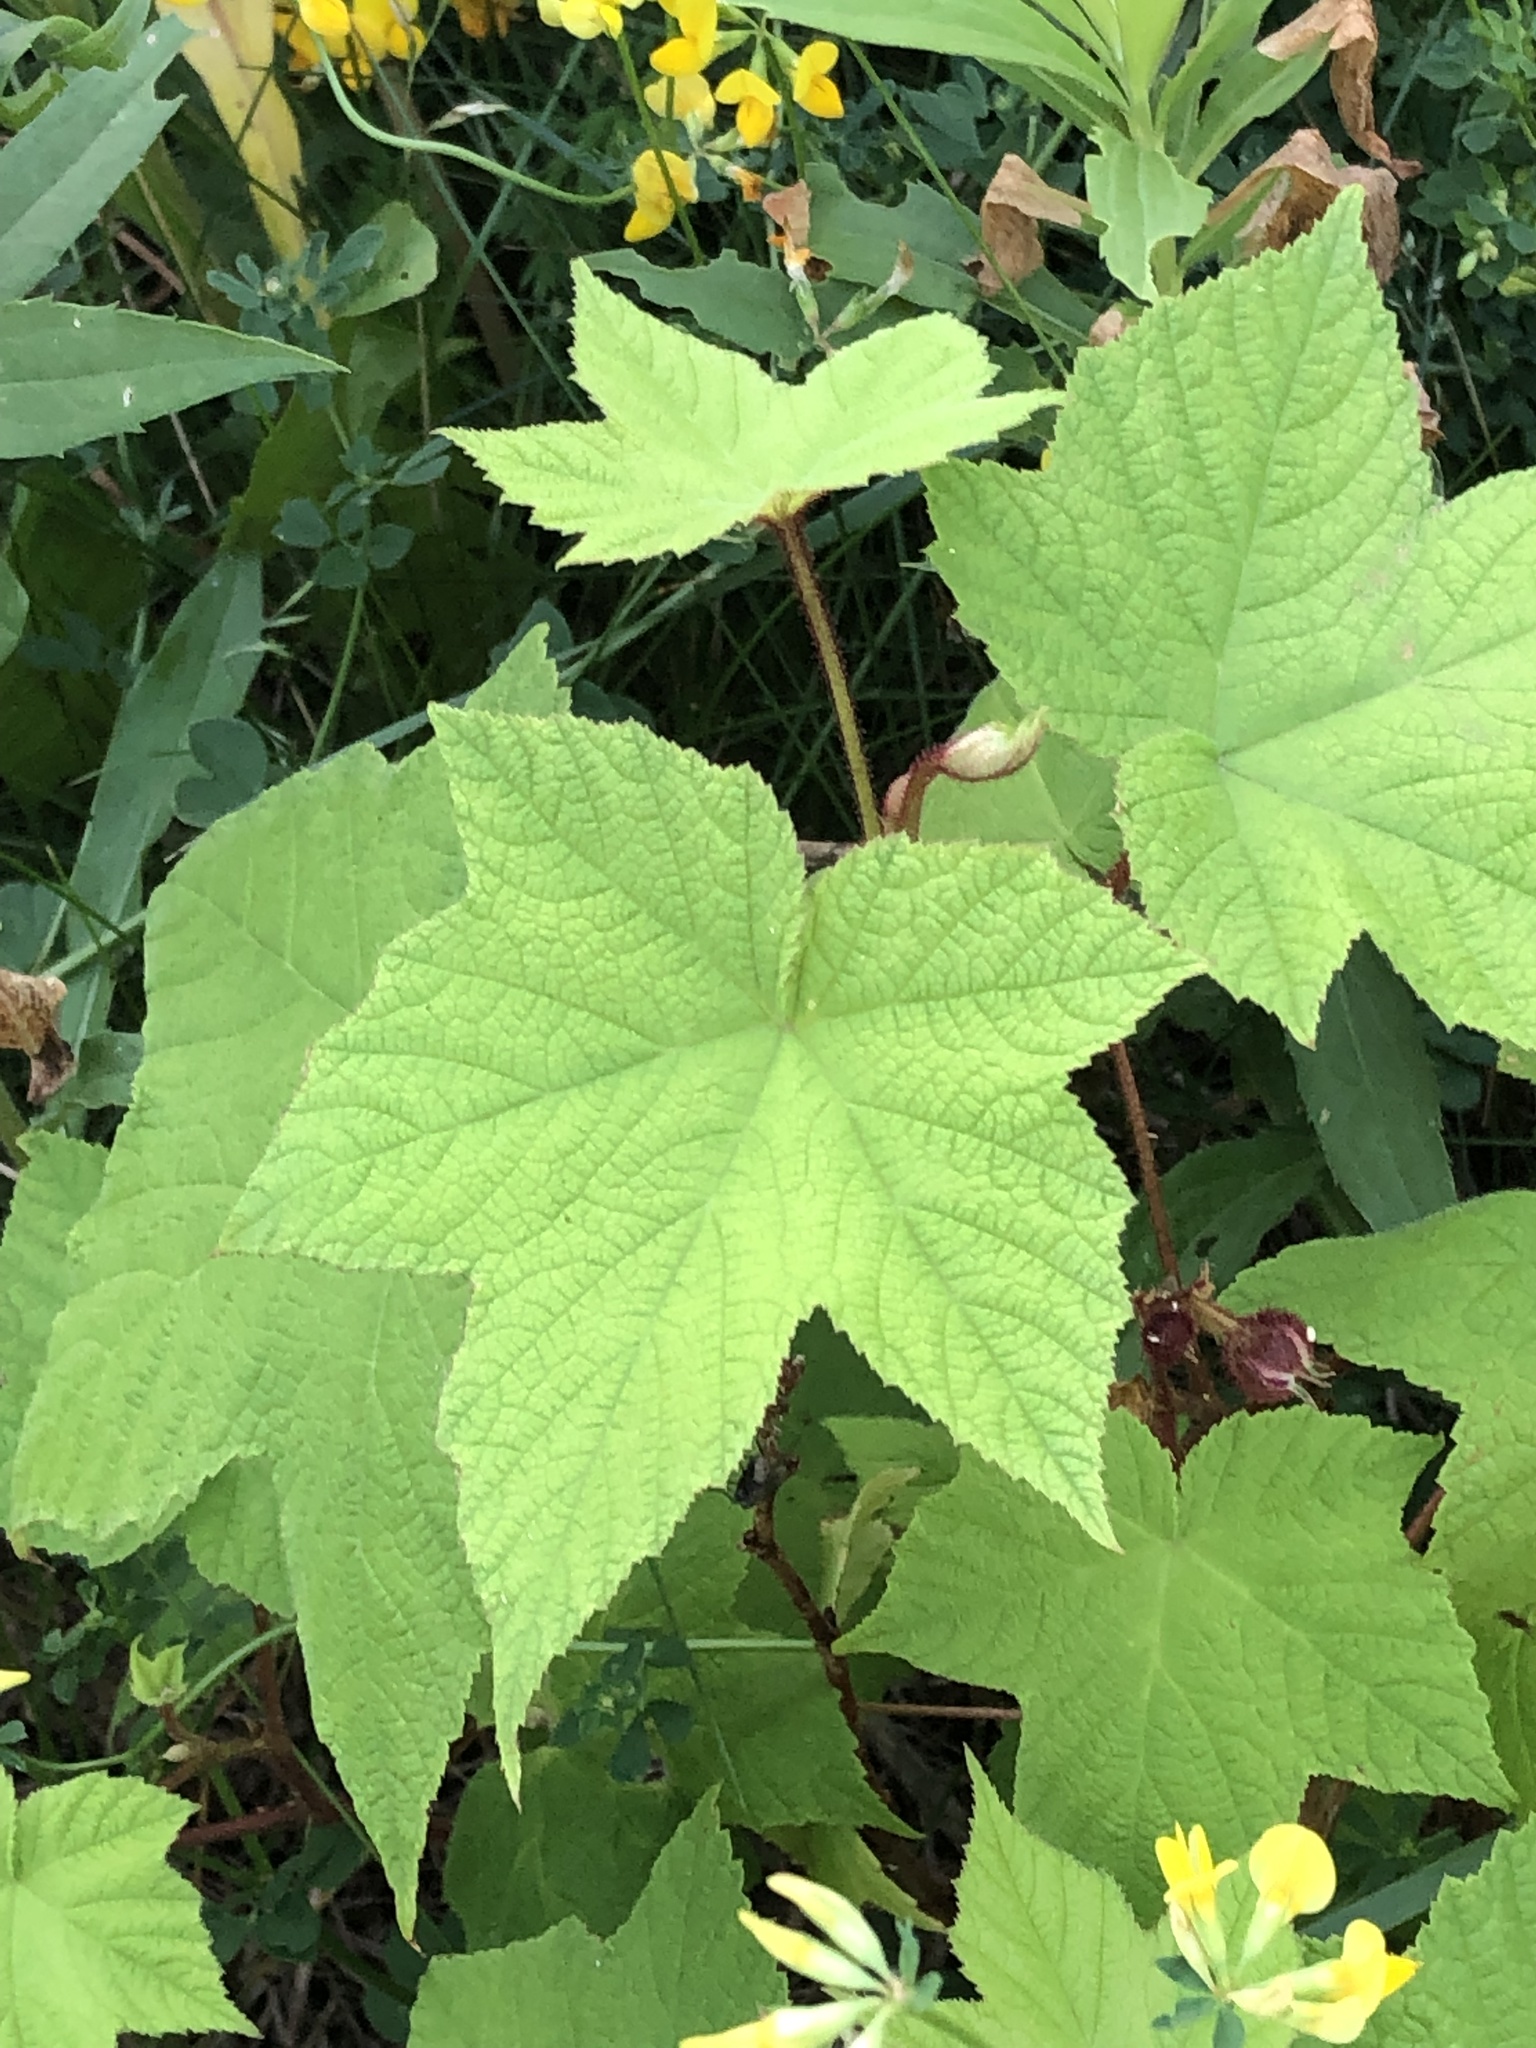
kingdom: Plantae
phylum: Tracheophyta
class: Magnoliopsida
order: Rosales
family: Rosaceae
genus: Rubus
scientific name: Rubus odoratus
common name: Purple-flowered raspberry
